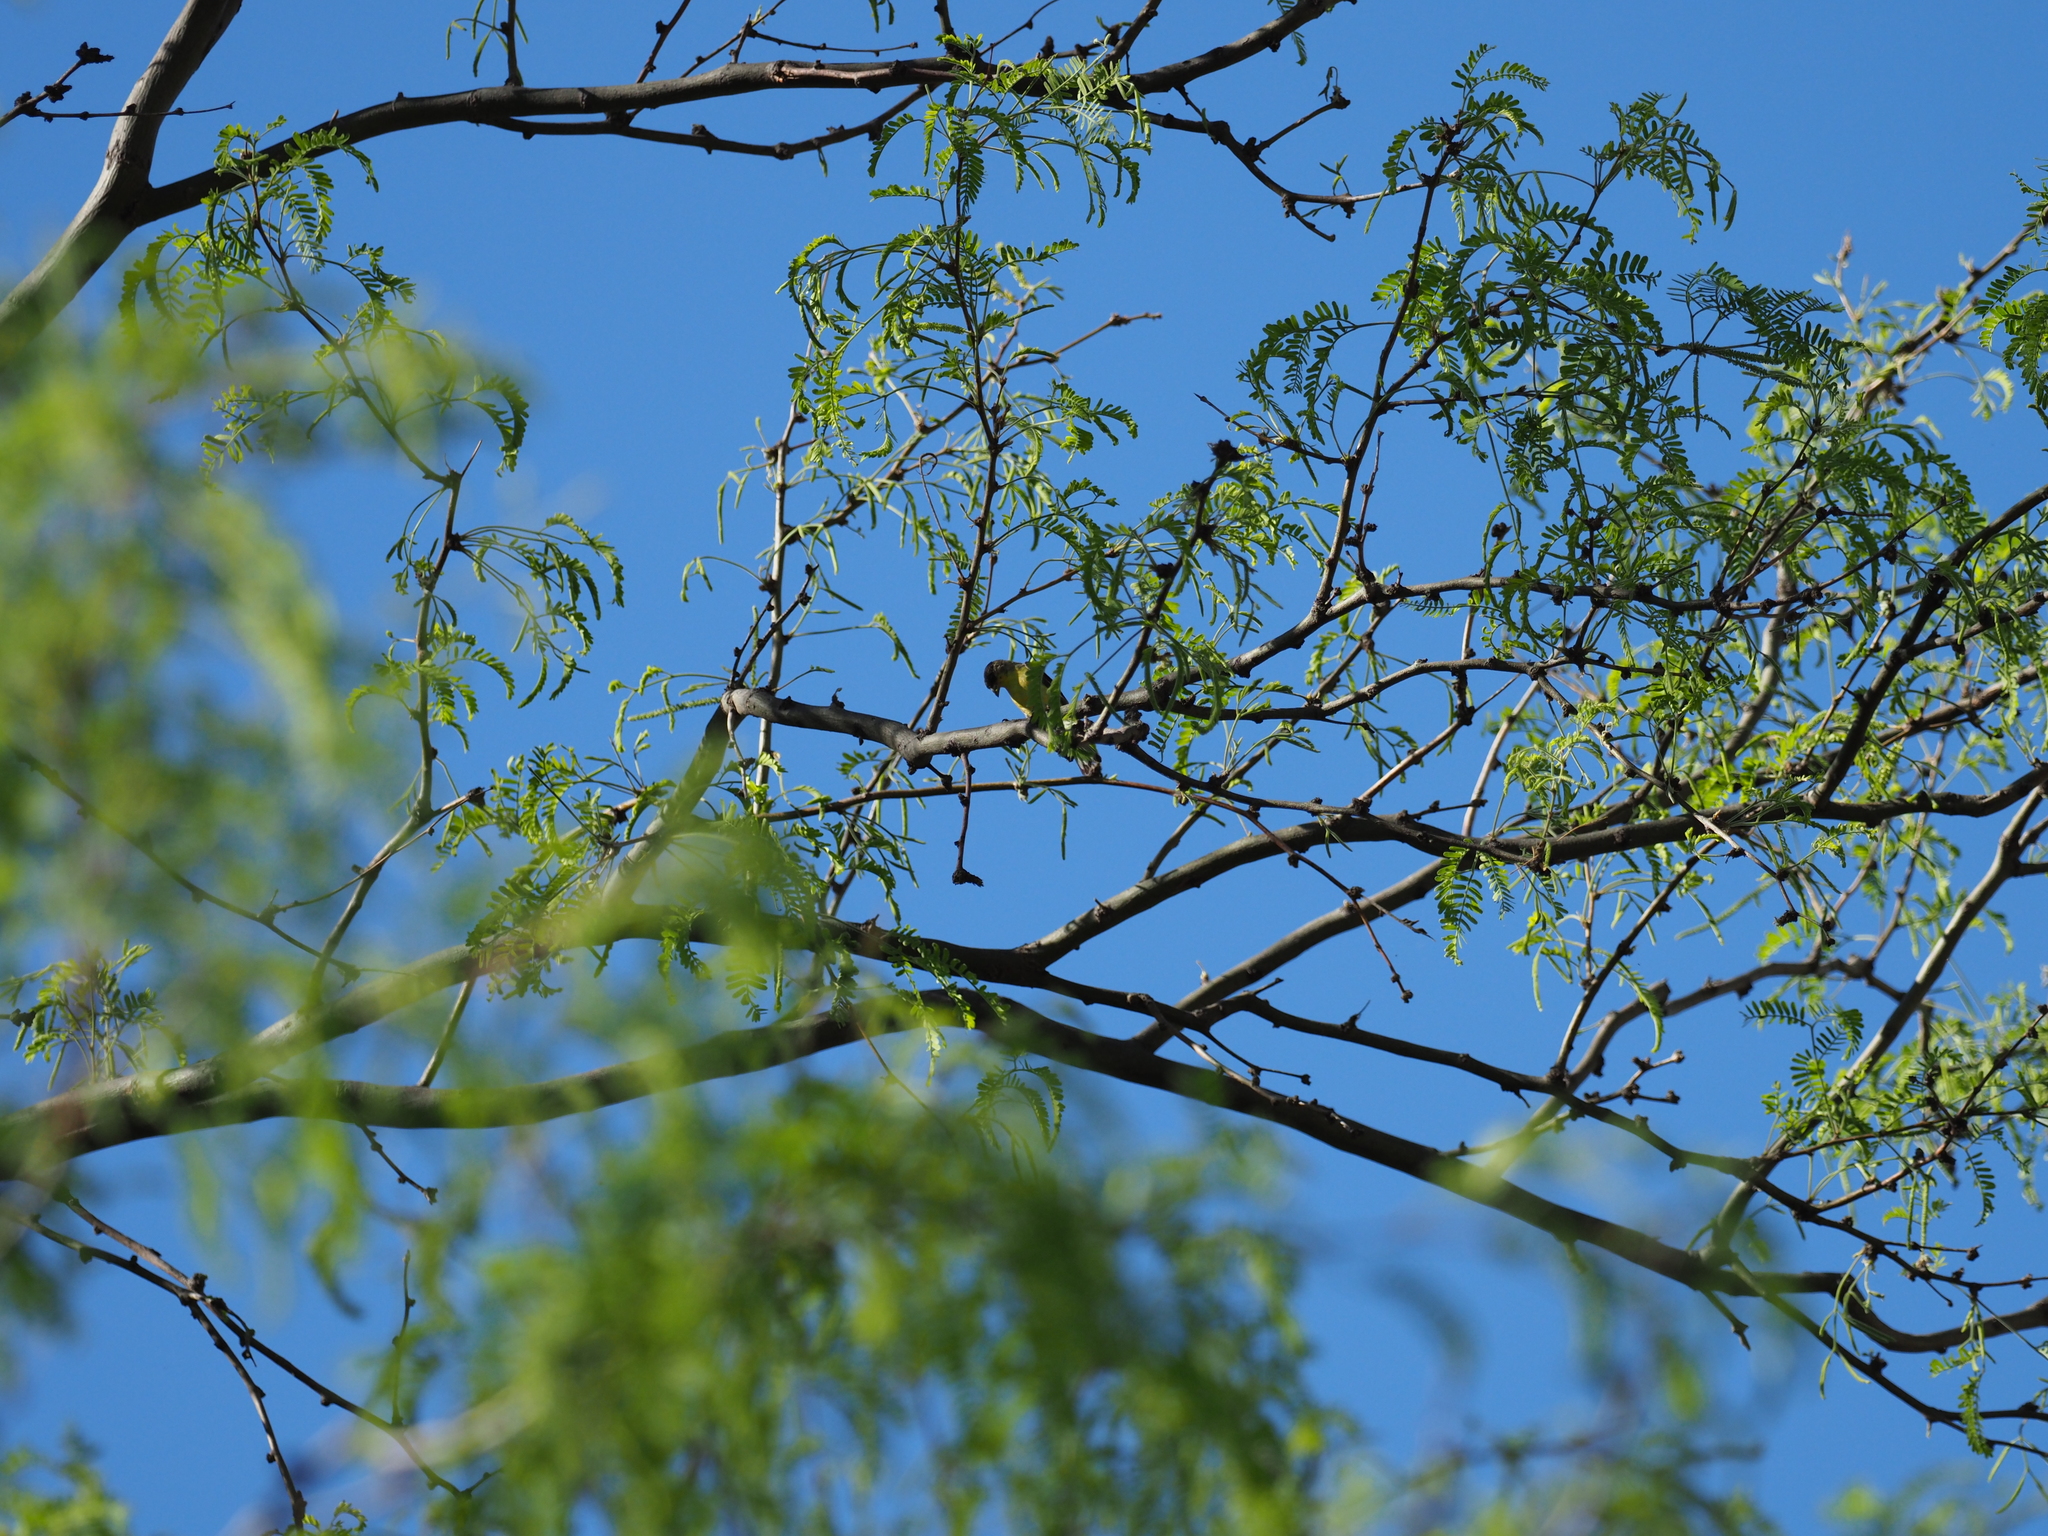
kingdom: Animalia
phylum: Chordata
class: Aves
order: Passeriformes
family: Fringillidae
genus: Spinus
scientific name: Spinus psaltria
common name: Lesser goldfinch
